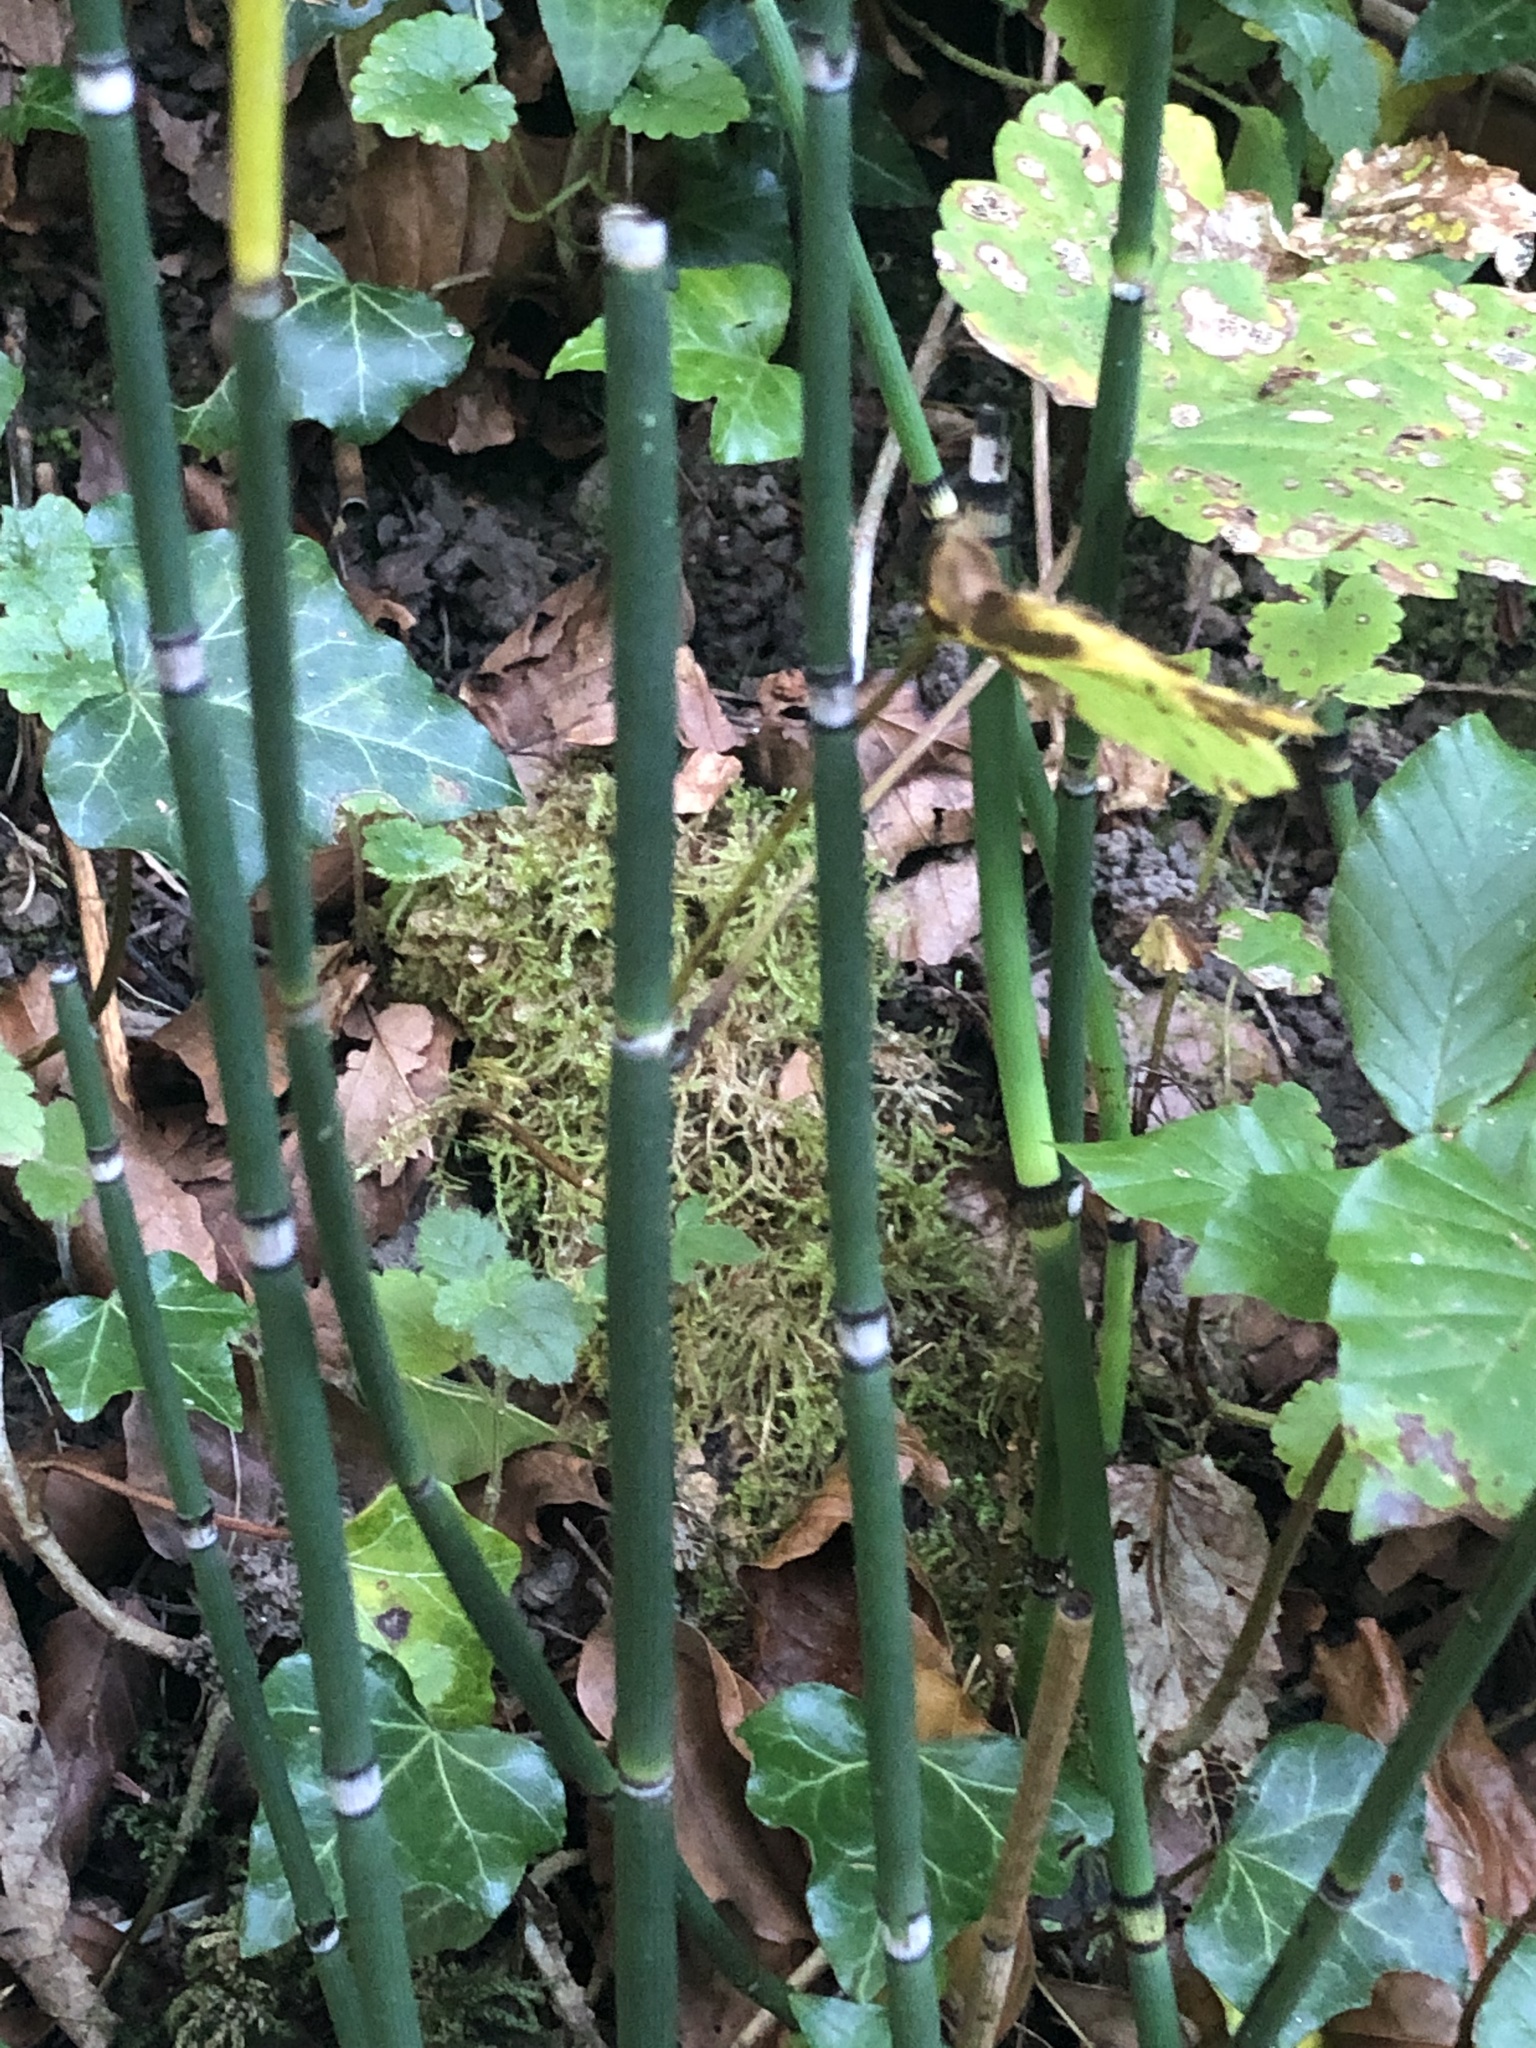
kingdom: Plantae
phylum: Tracheophyta
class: Polypodiopsida
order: Equisetales
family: Equisetaceae
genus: Equisetum
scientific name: Equisetum hyemale
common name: Rough horsetail
